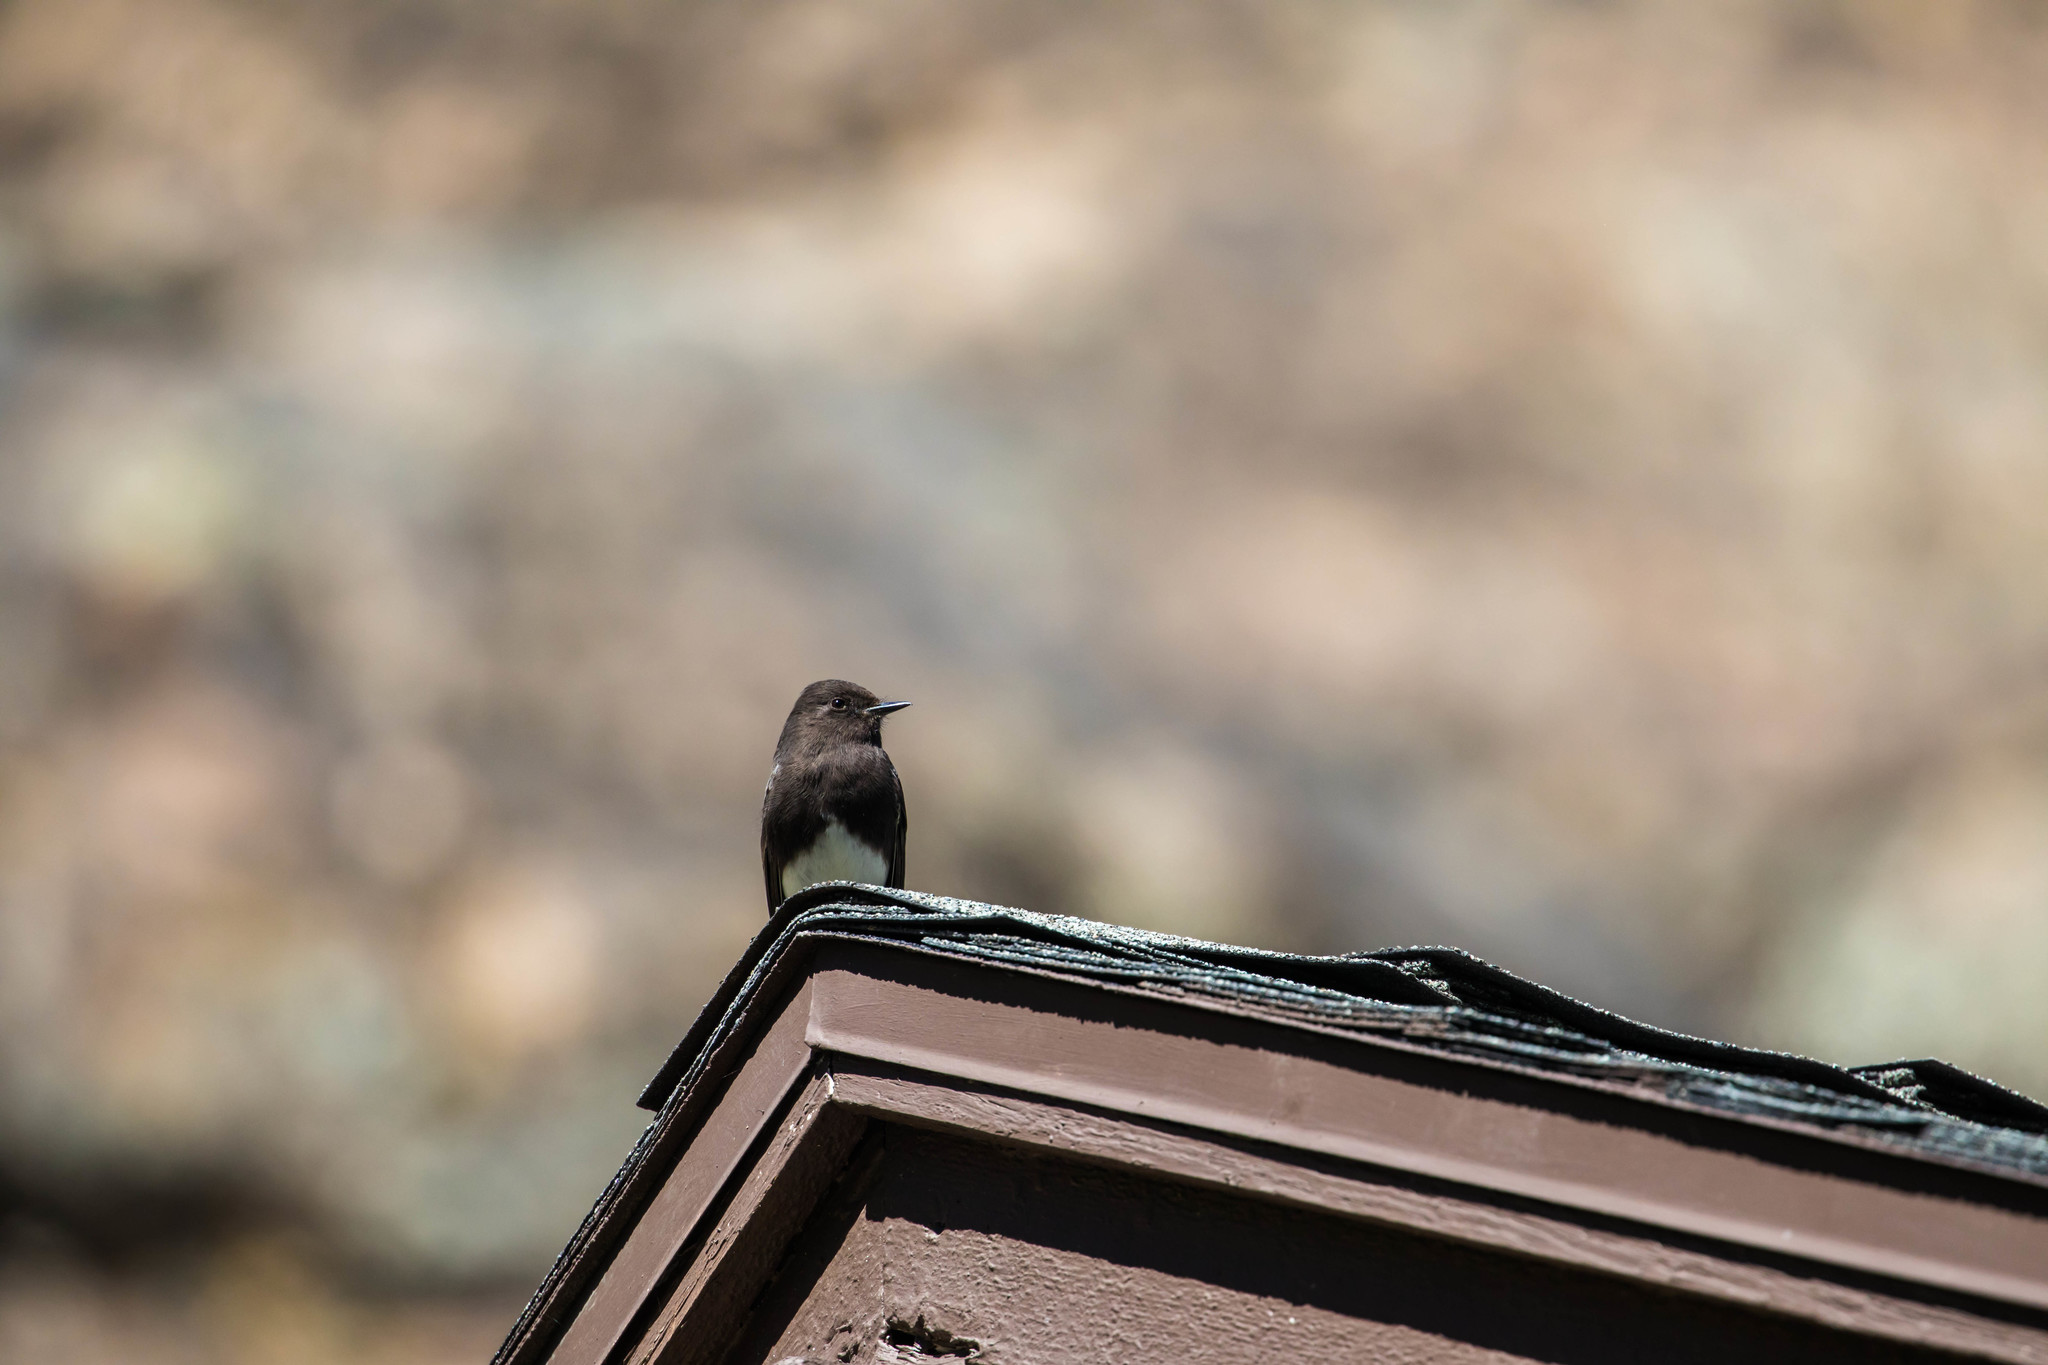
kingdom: Animalia
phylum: Chordata
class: Aves
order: Passeriformes
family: Tyrannidae
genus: Sayornis
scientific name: Sayornis nigricans
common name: Black phoebe
